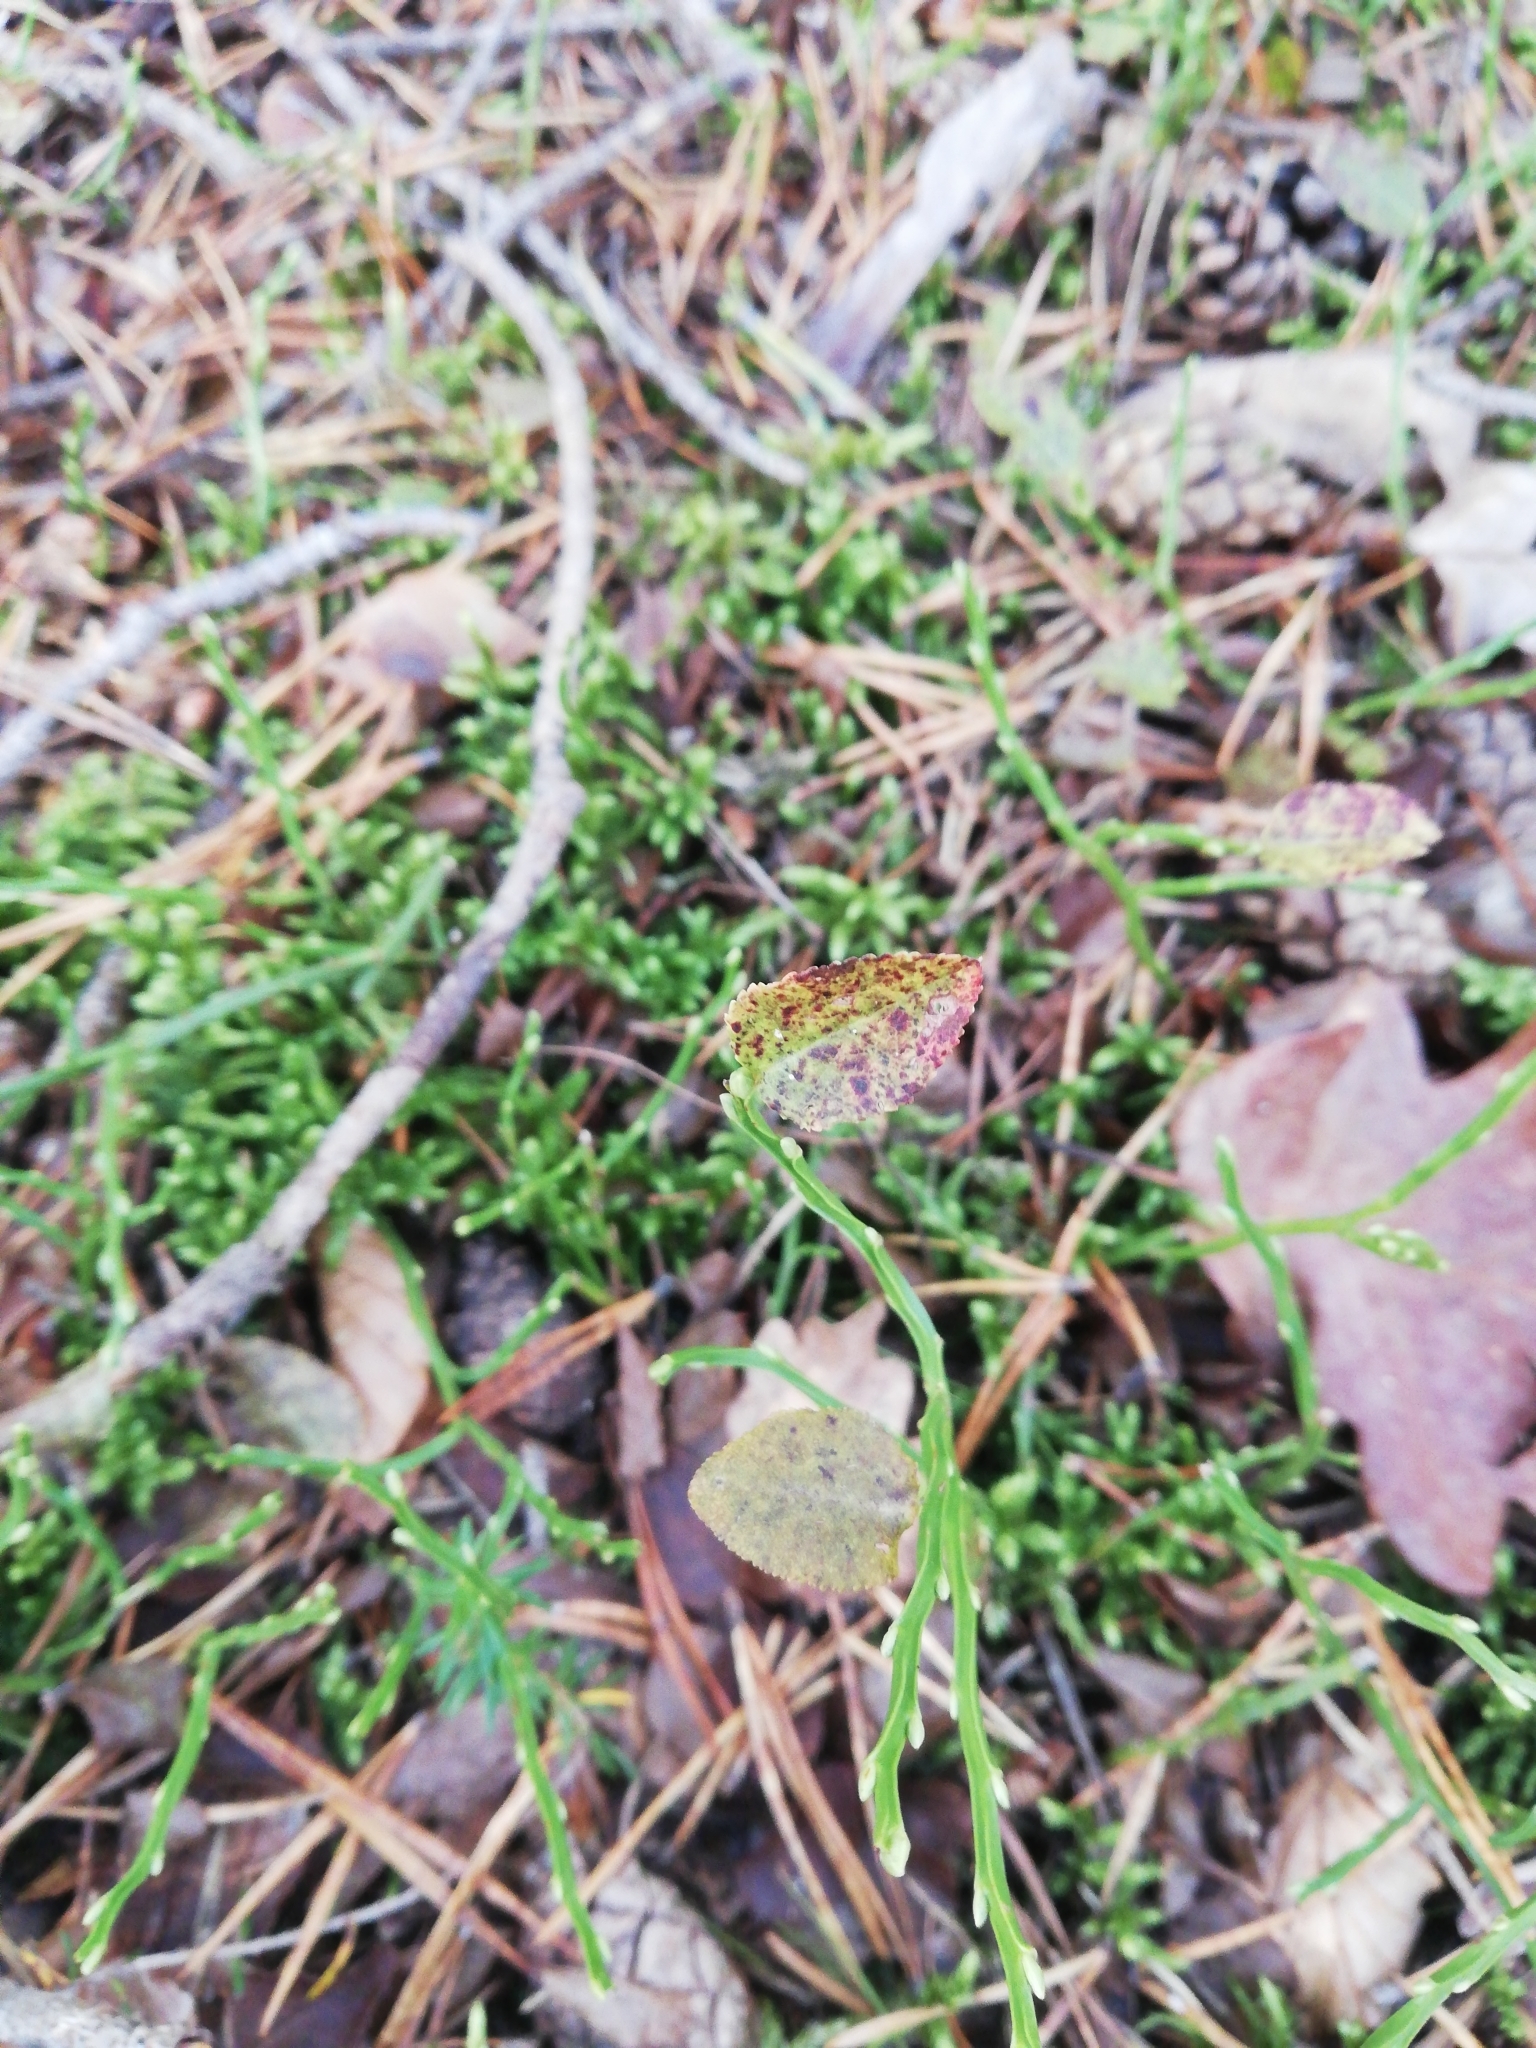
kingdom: Plantae
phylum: Tracheophyta
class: Magnoliopsida
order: Ericales
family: Ericaceae
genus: Vaccinium
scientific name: Vaccinium myrtillus
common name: Bilberry
